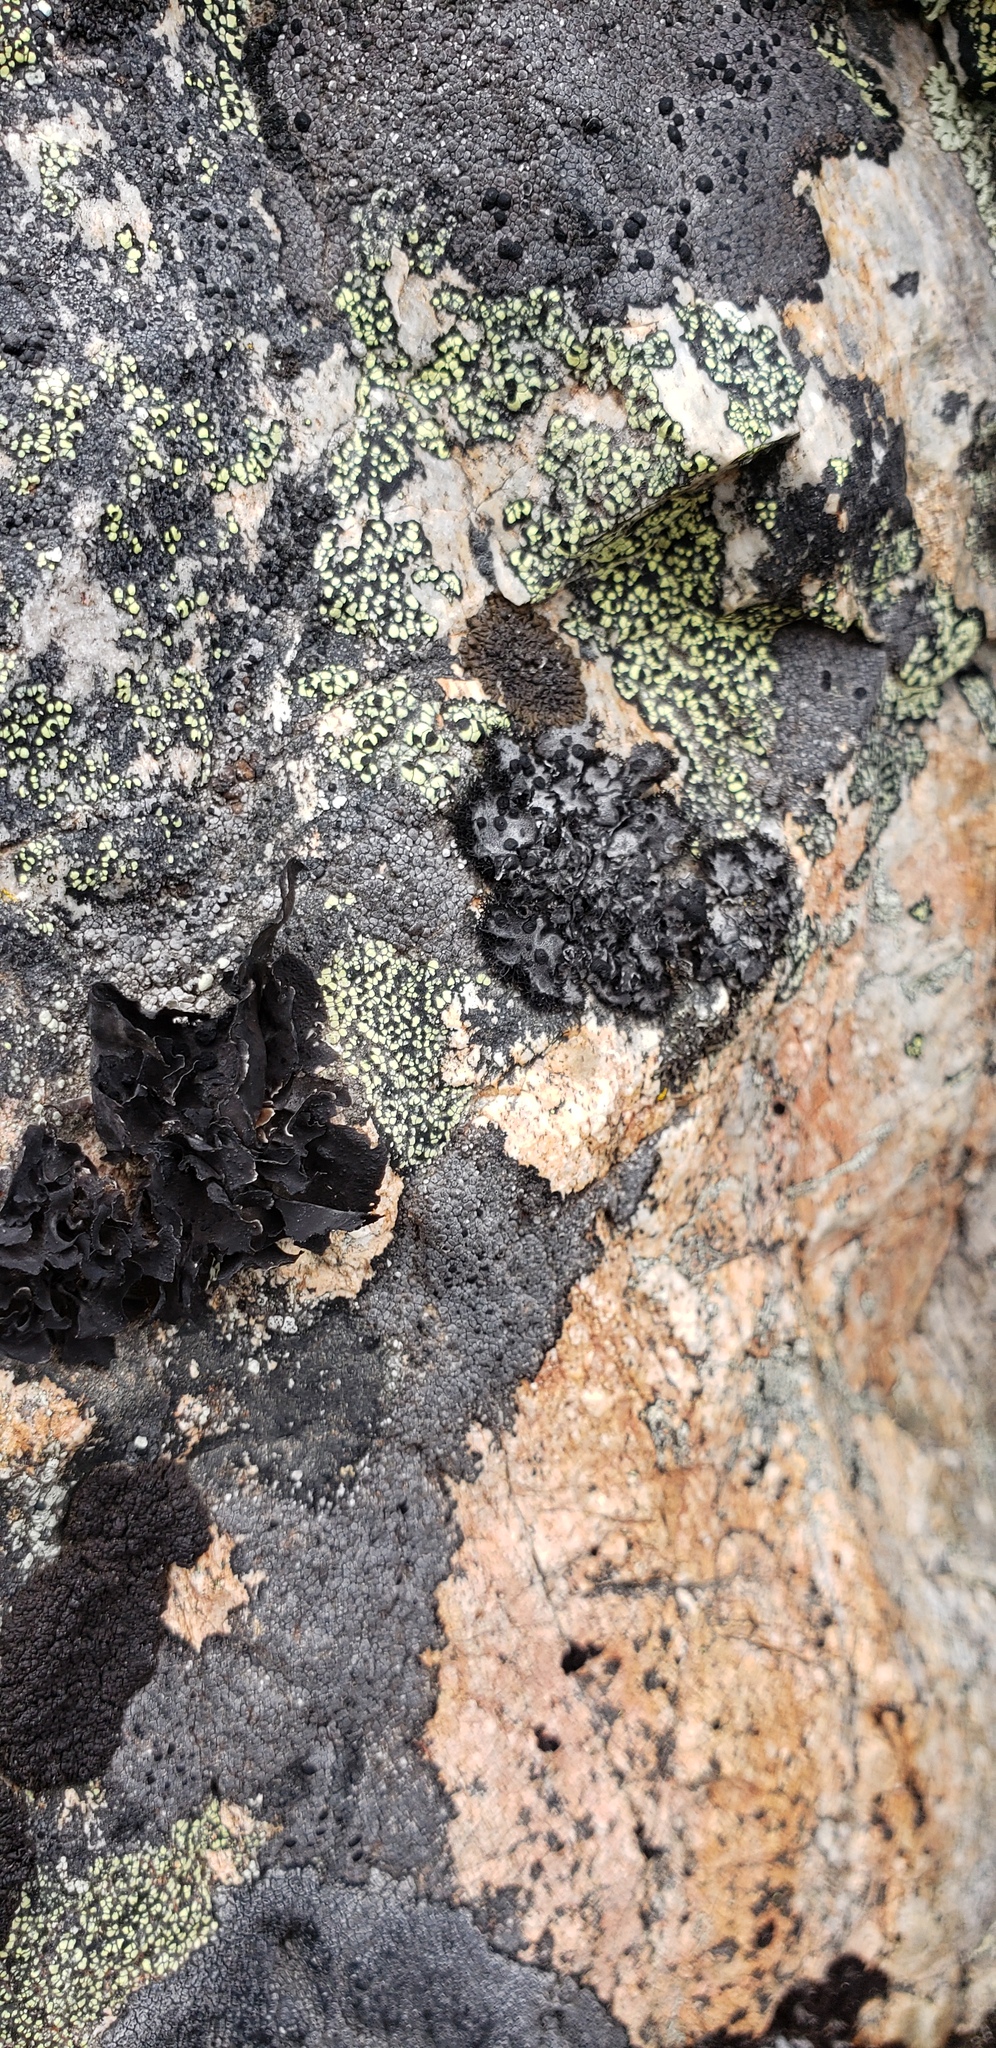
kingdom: Fungi
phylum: Ascomycota
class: Lecanoromycetes
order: Umbilicariales
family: Umbilicariaceae
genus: Umbilicaria
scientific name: Umbilicaria cylindrica
